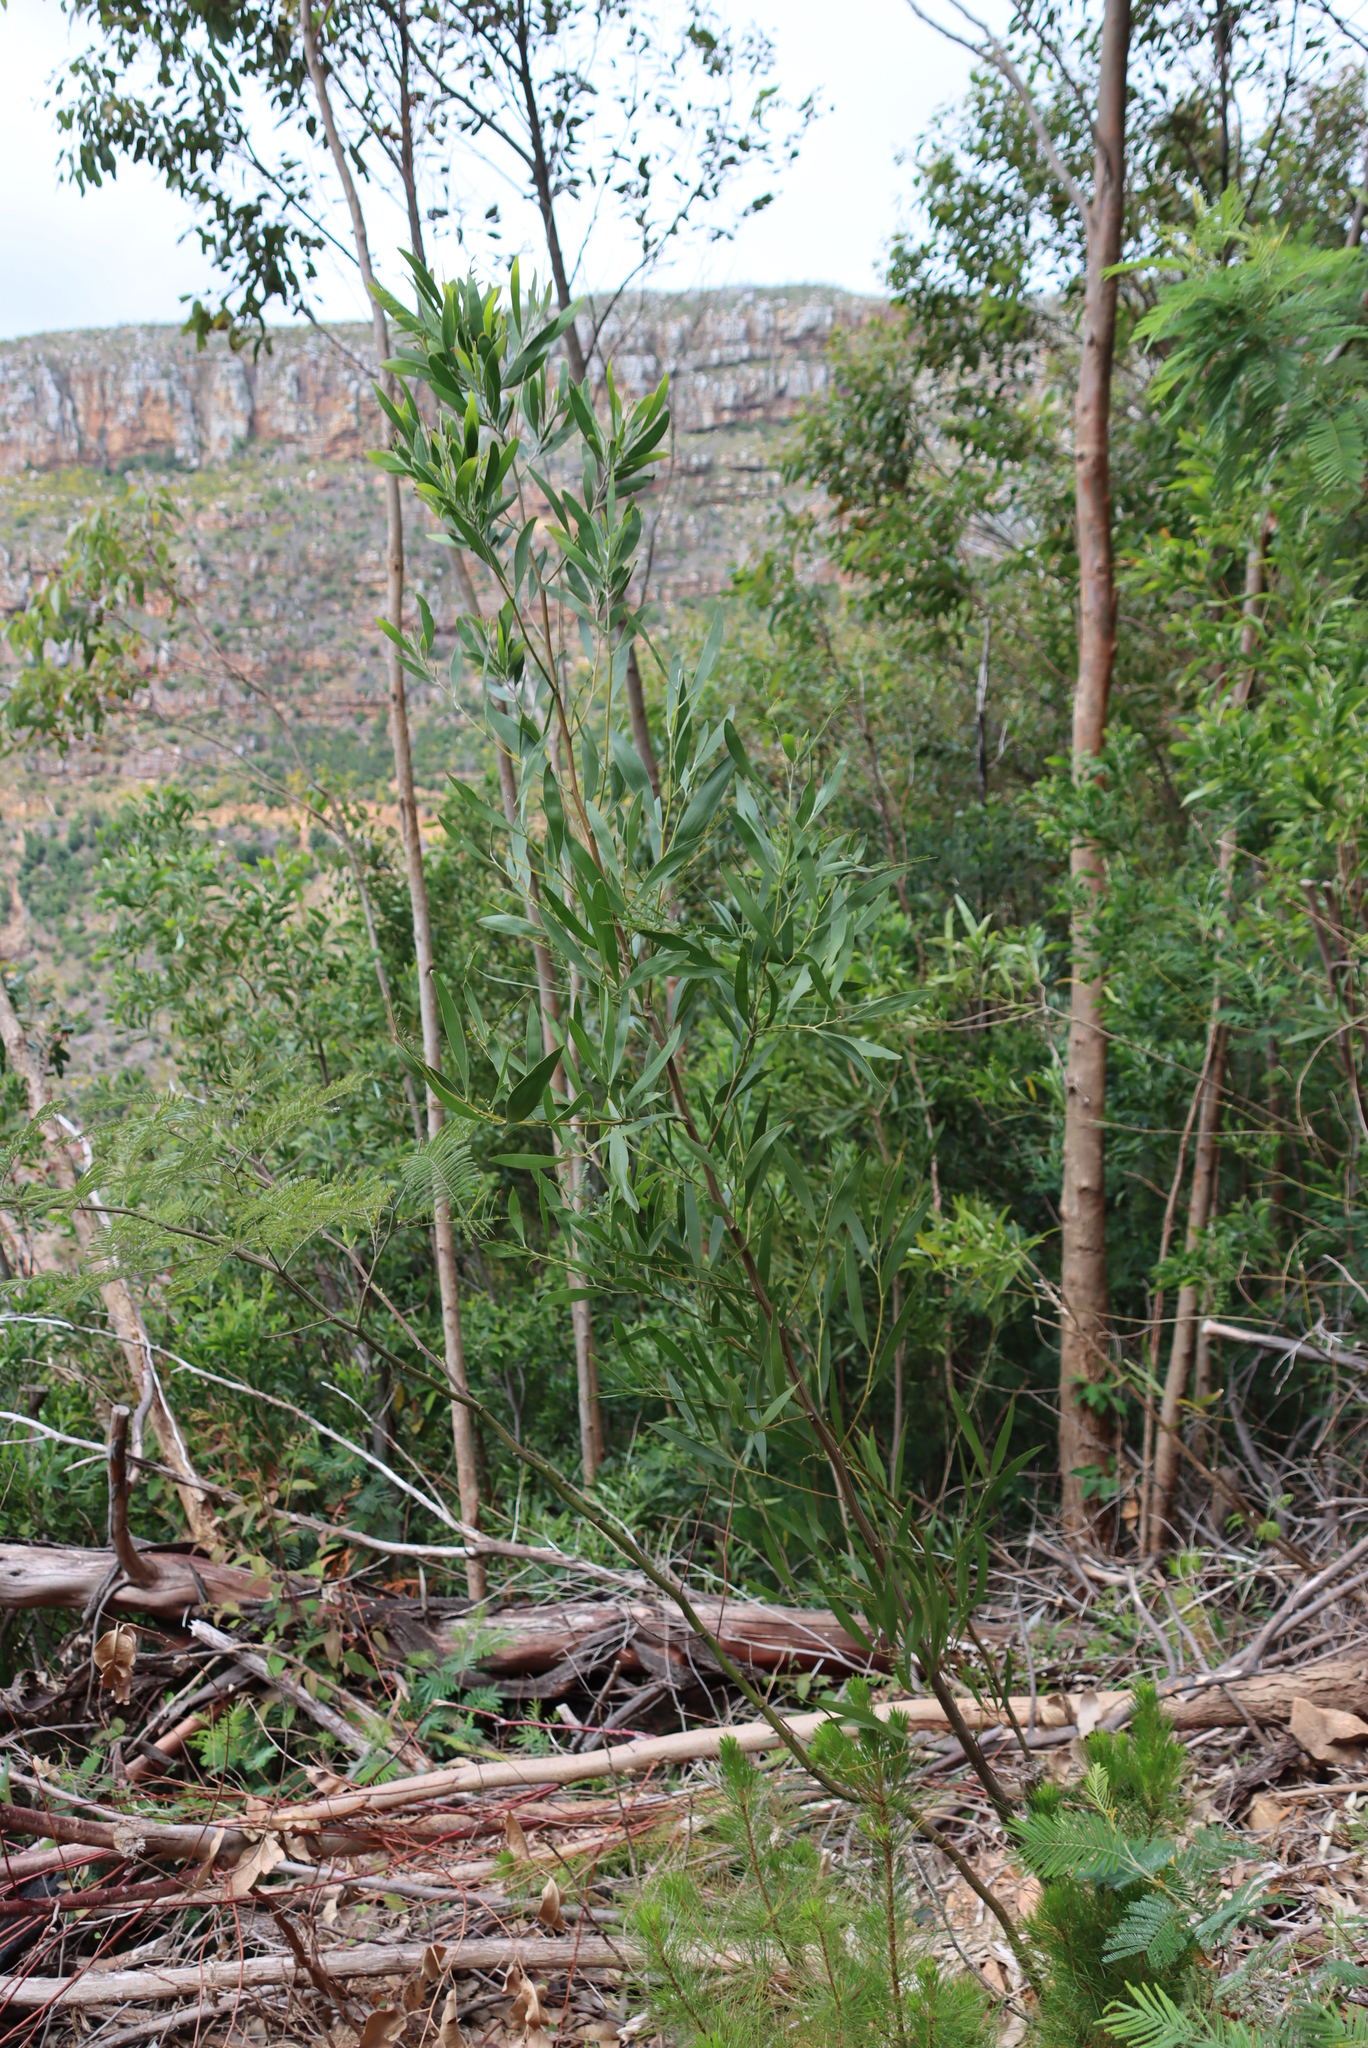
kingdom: Plantae
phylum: Tracheophyta
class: Magnoliopsida
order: Fabales
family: Fabaceae
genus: Acacia
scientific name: Acacia longifolia
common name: Sydney golden wattle
